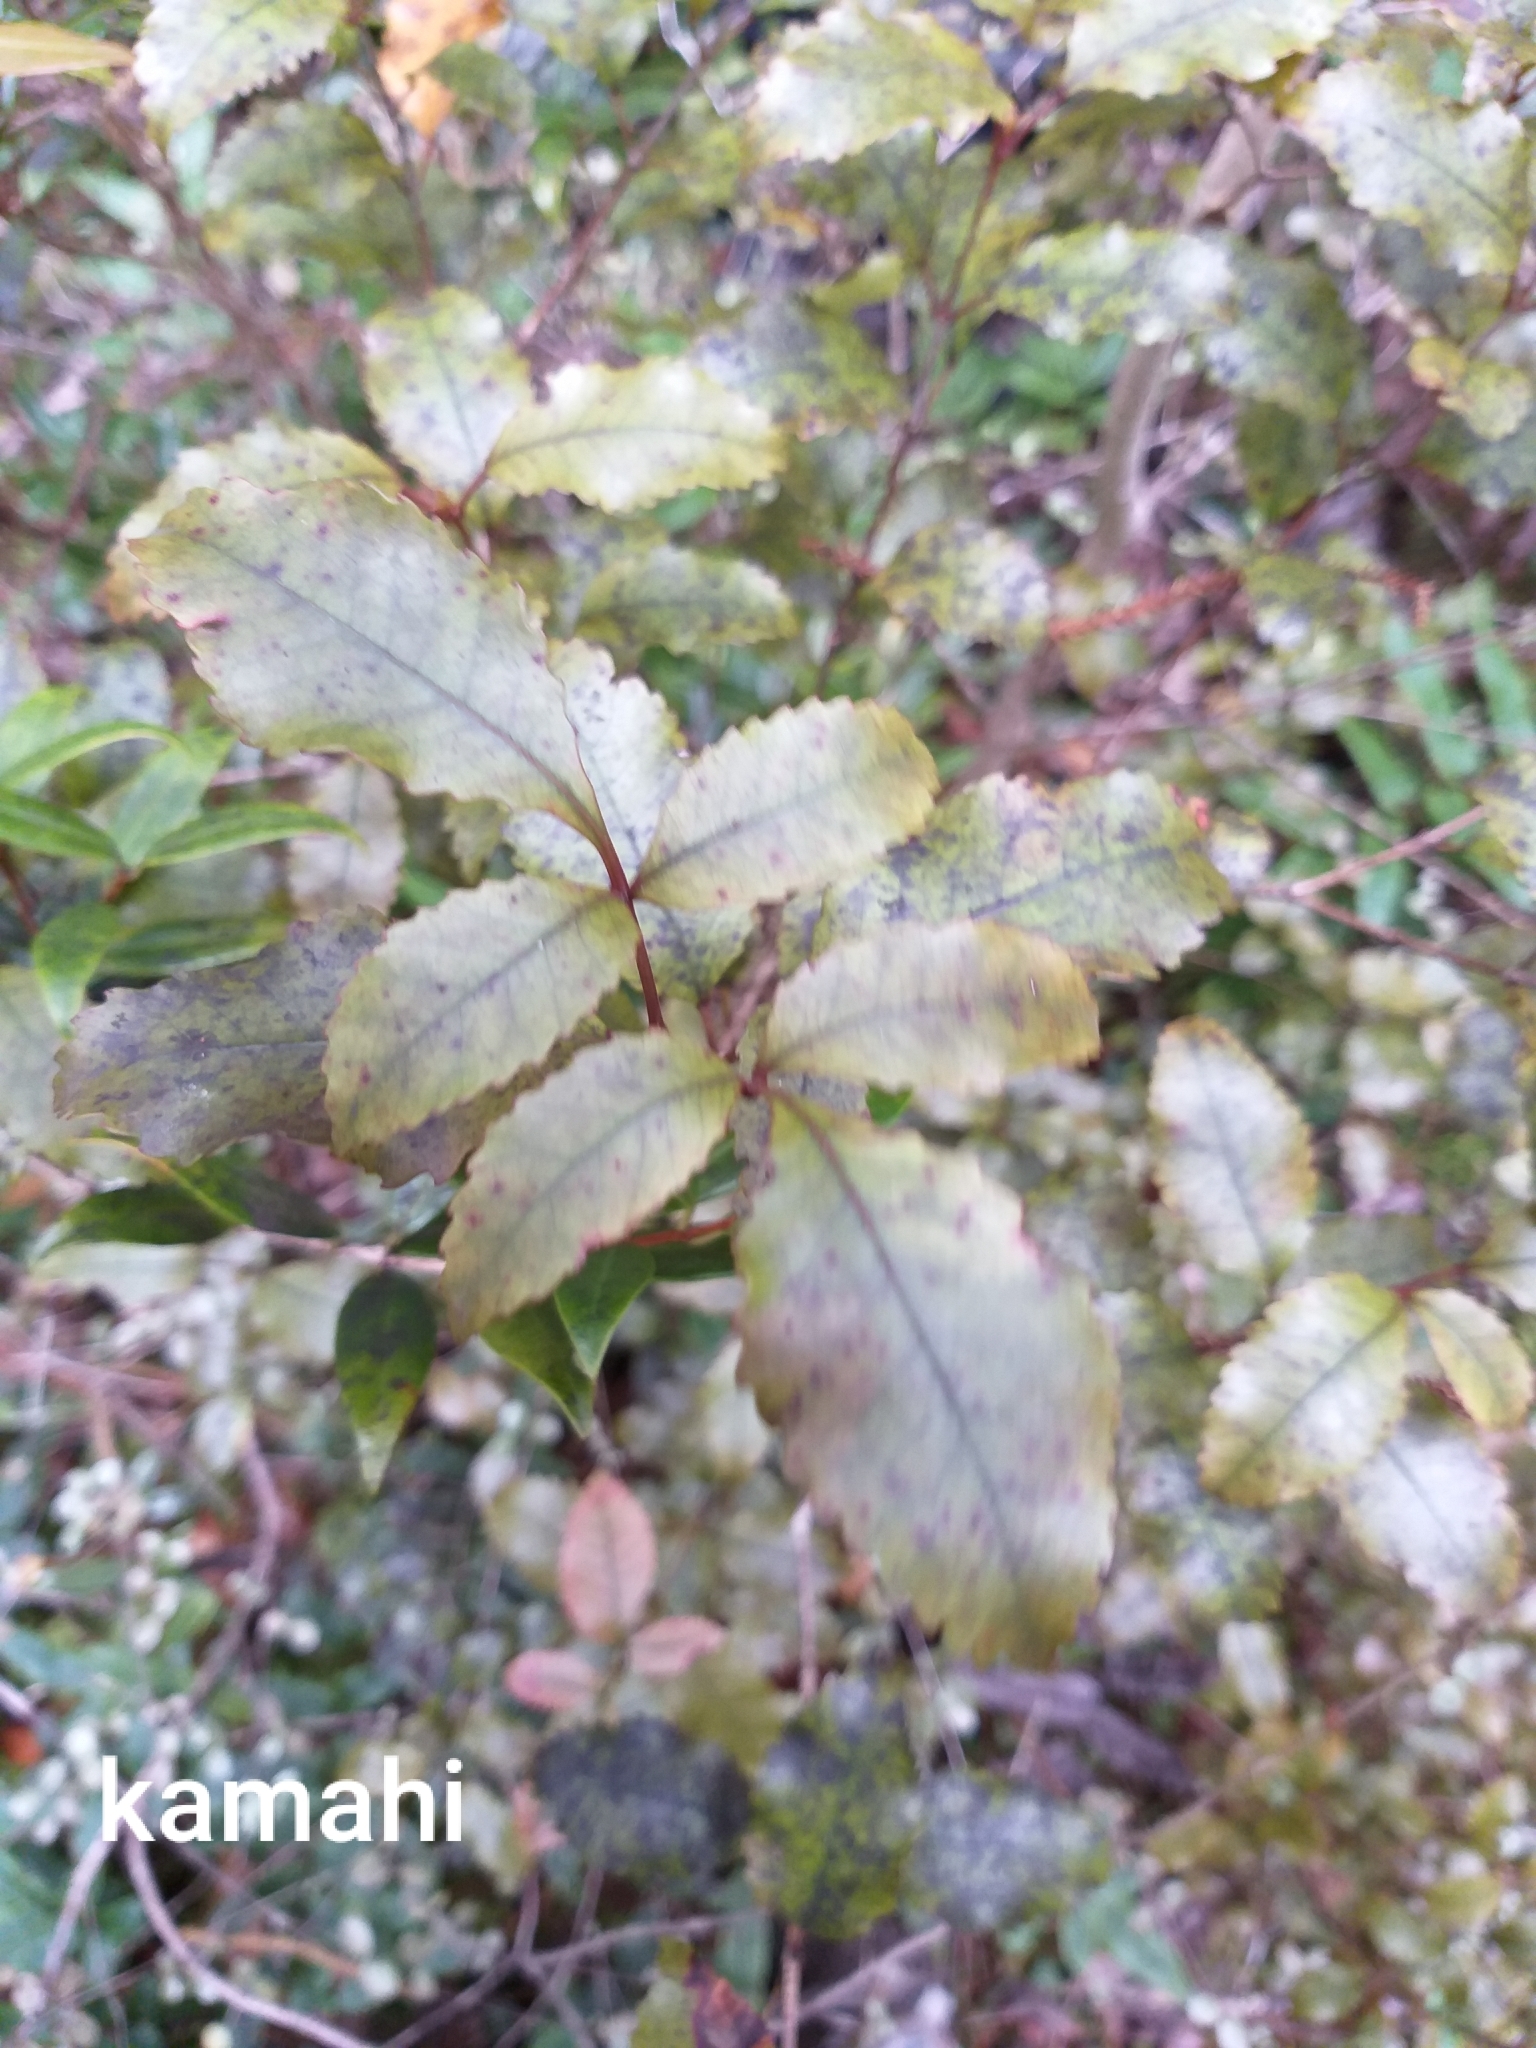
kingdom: Plantae
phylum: Tracheophyta
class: Magnoliopsida
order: Oxalidales
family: Cunoniaceae
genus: Pterophylla
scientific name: Pterophylla racemosa
